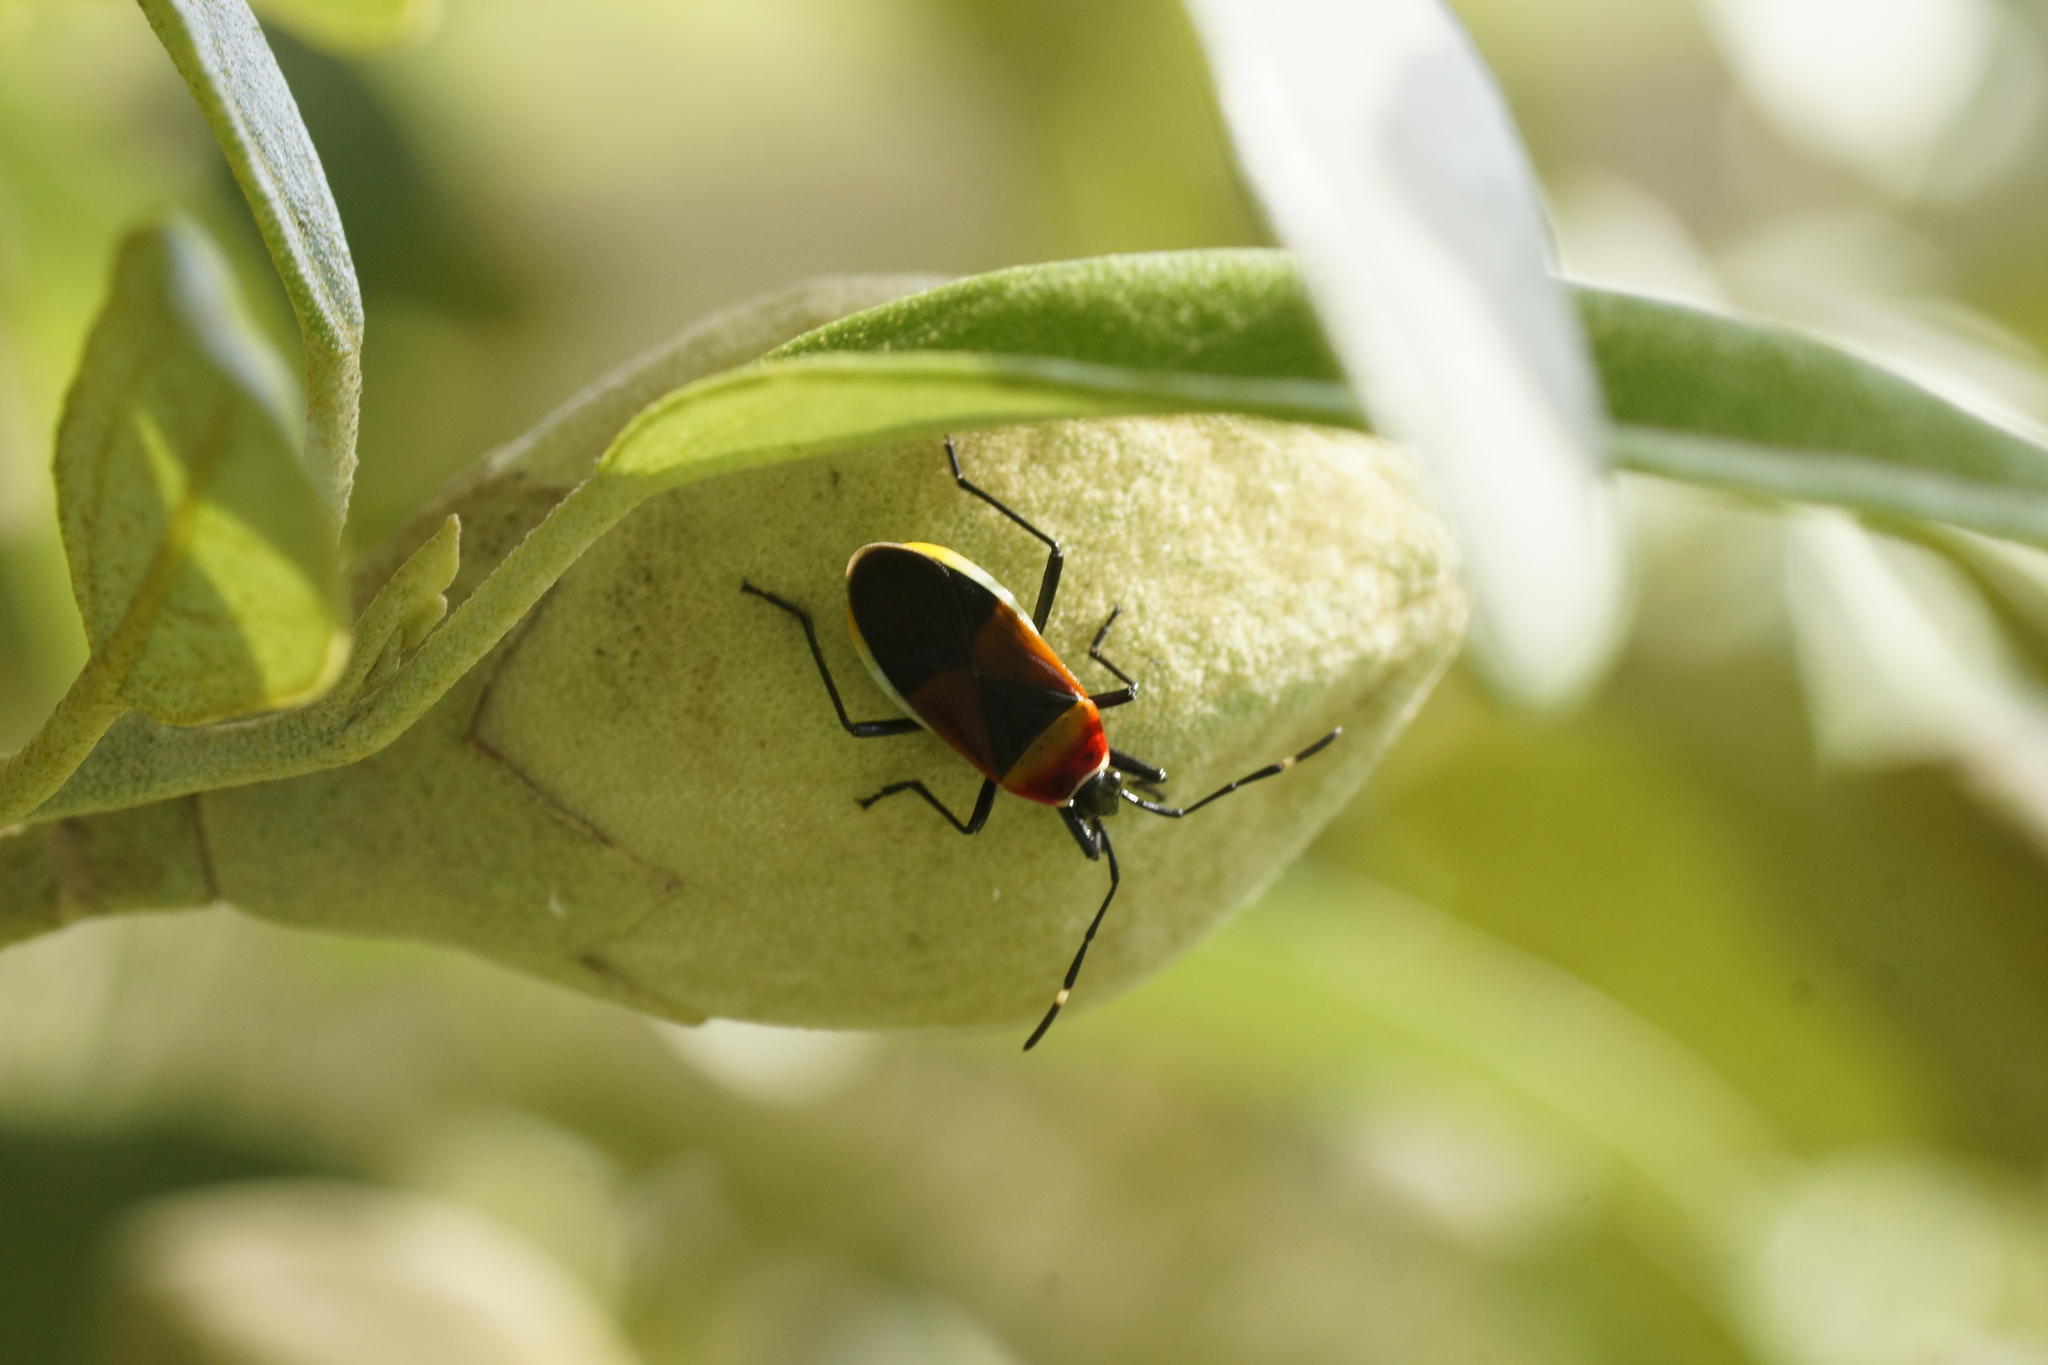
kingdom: Animalia
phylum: Arthropoda
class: Insecta
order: Hemiptera
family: Pyrrhocoridae
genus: Dindymus
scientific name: Dindymus
